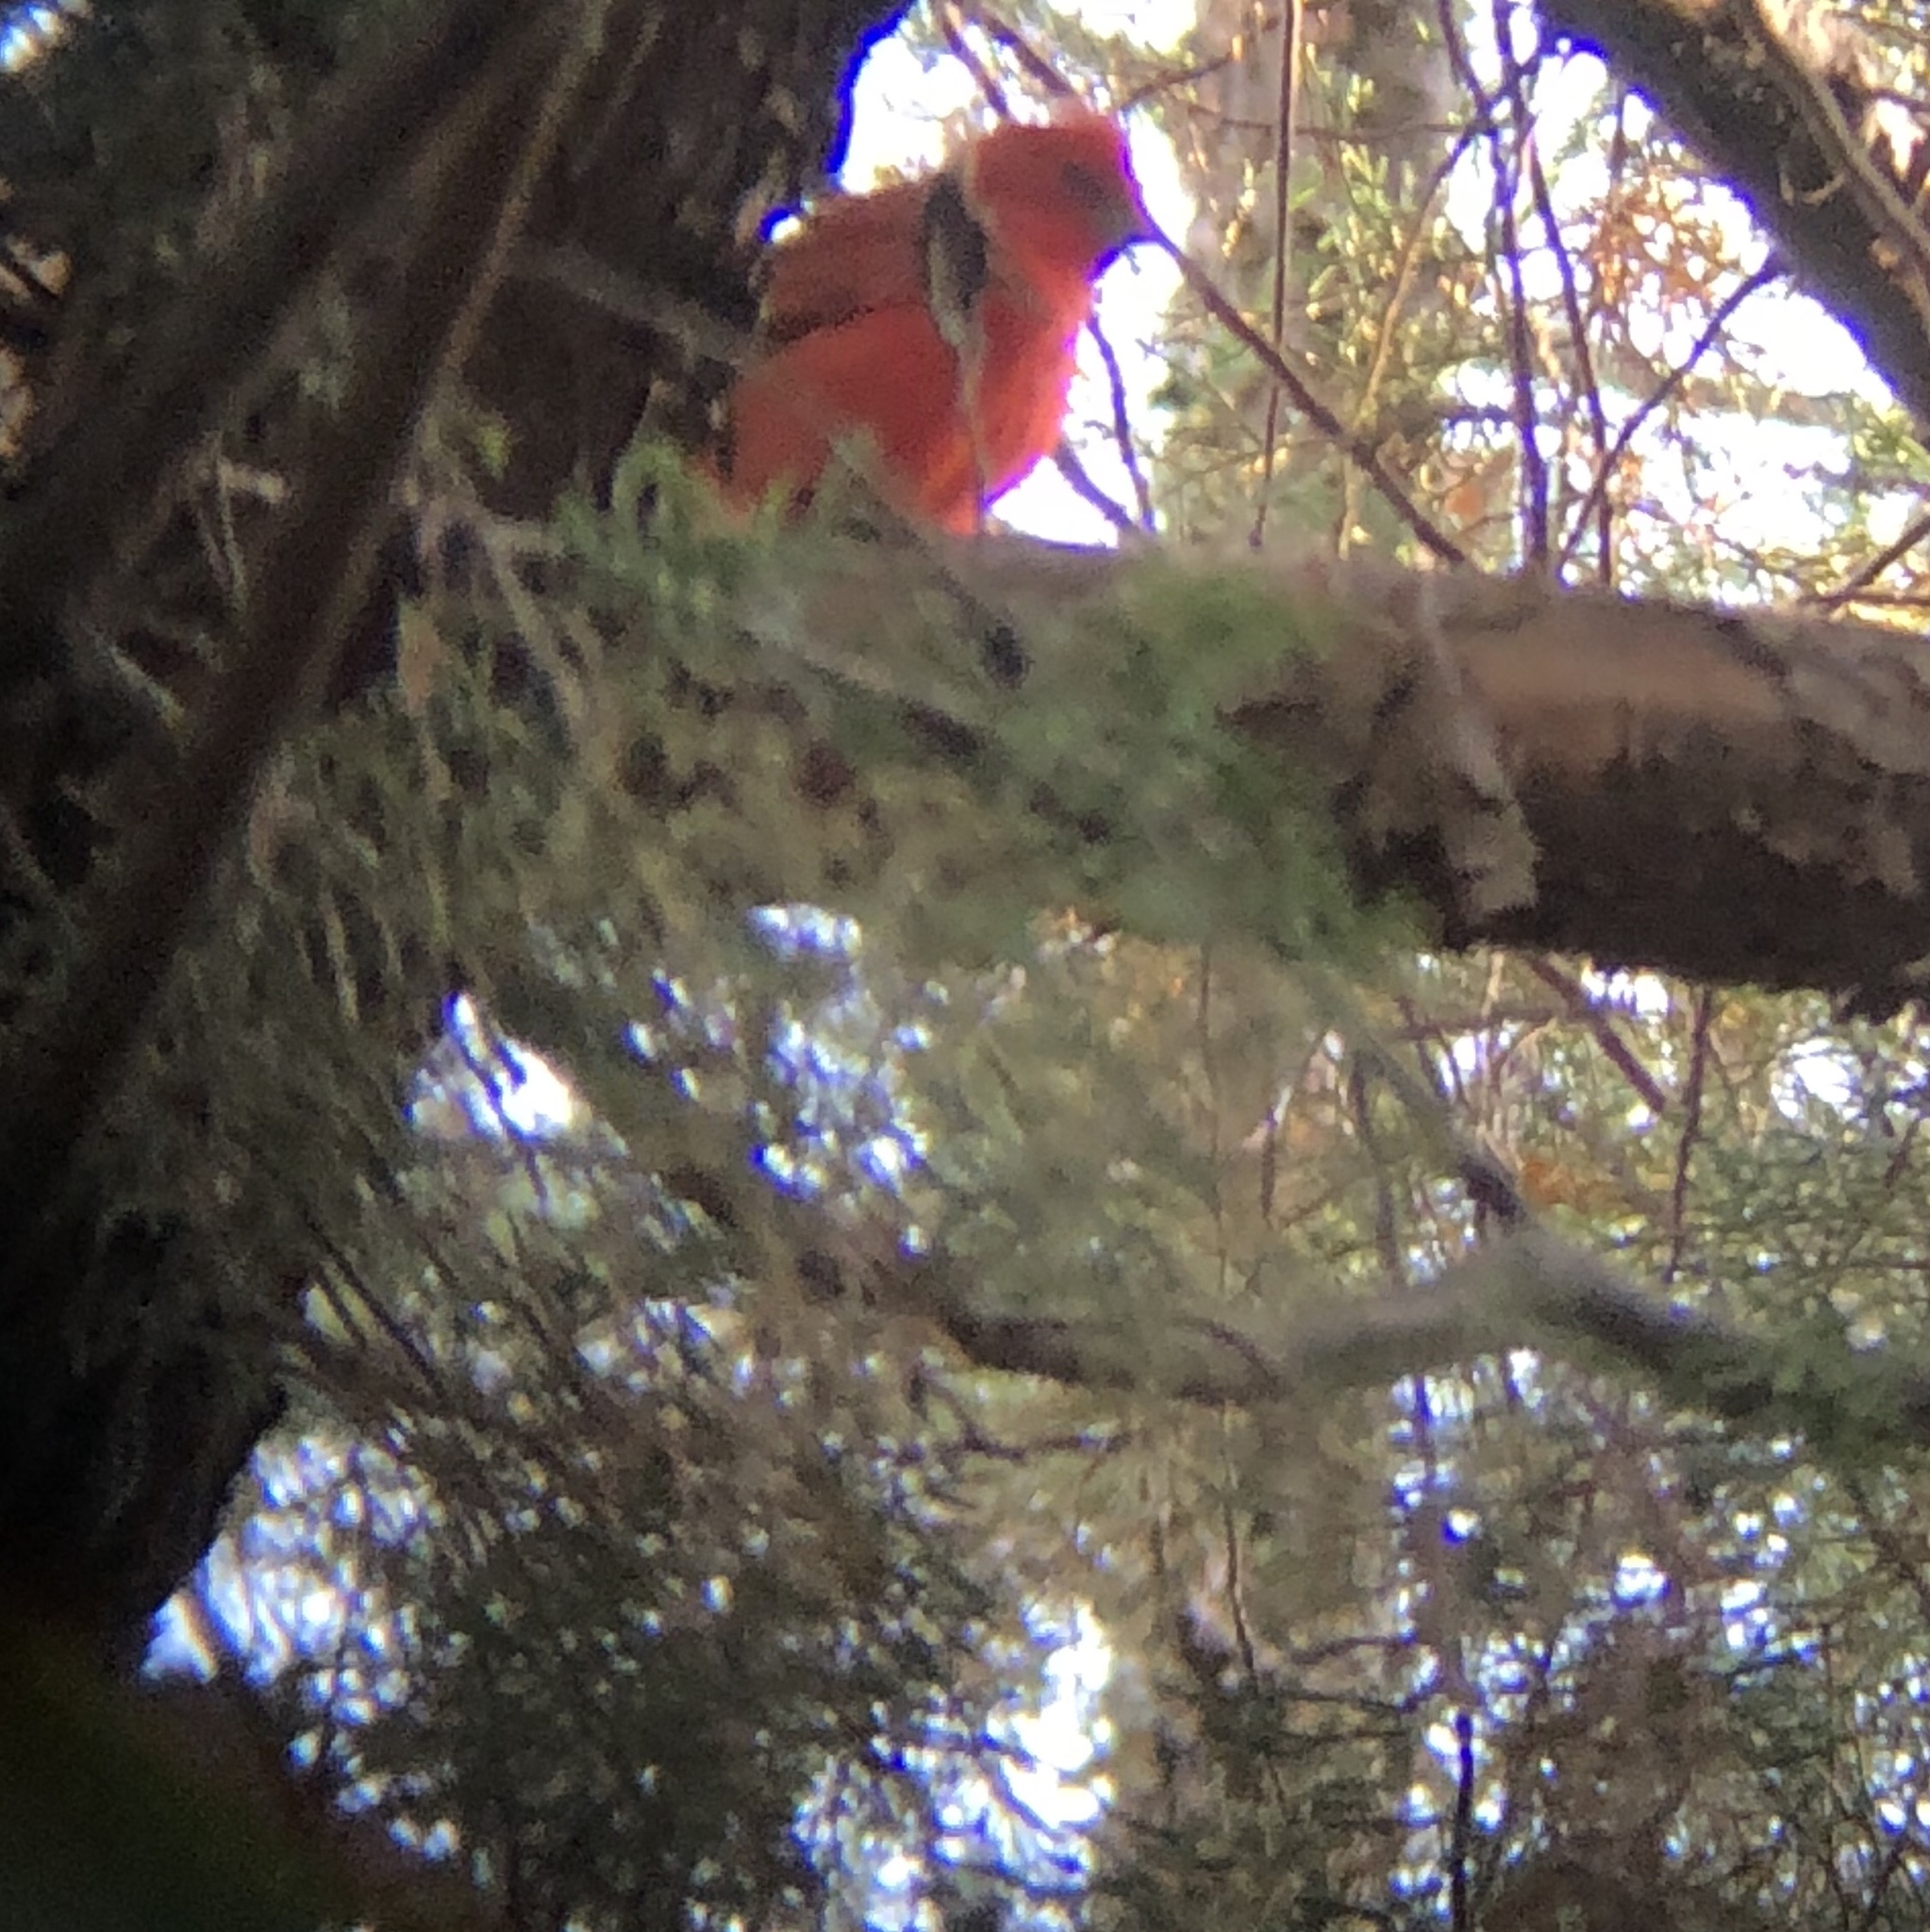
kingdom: Animalia
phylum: Chordata
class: Aves
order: Passeriformes
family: Cardinalidae
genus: Piranga
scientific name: Piranga rubra
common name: Summer tanager
